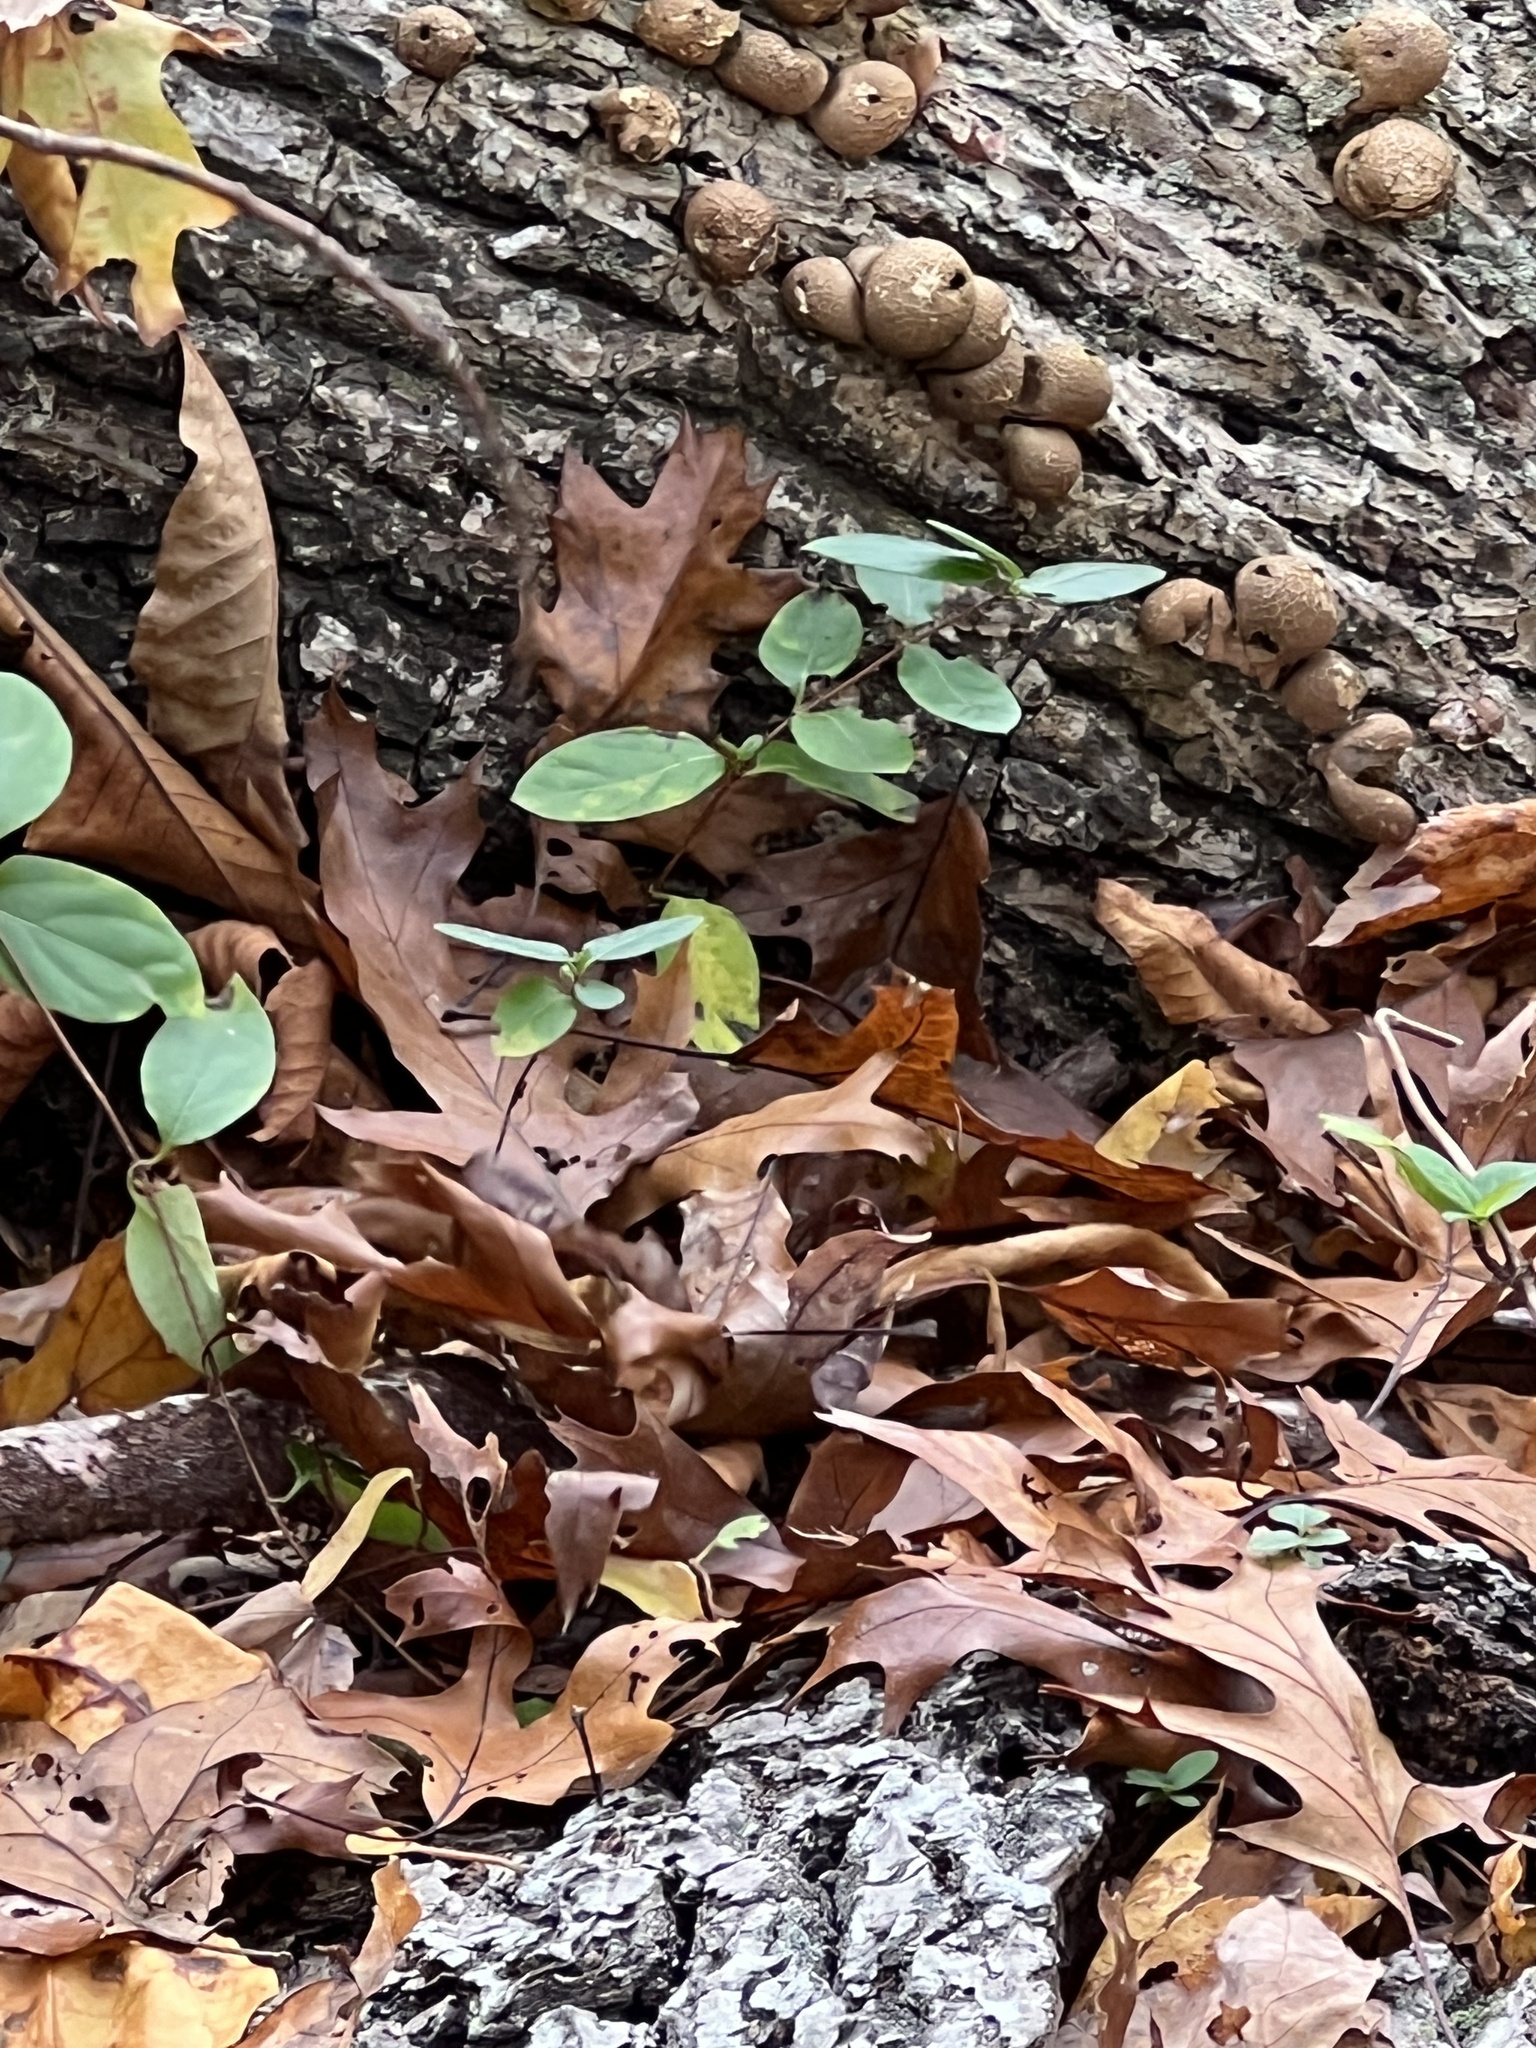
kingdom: Fungi
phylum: Basidiomycota
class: Agaricomycetes
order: Agaricales
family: Lycoperdaceae
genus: Apioperdon
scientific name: Apioperdon pyriforme
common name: Pear-shaped puffball
